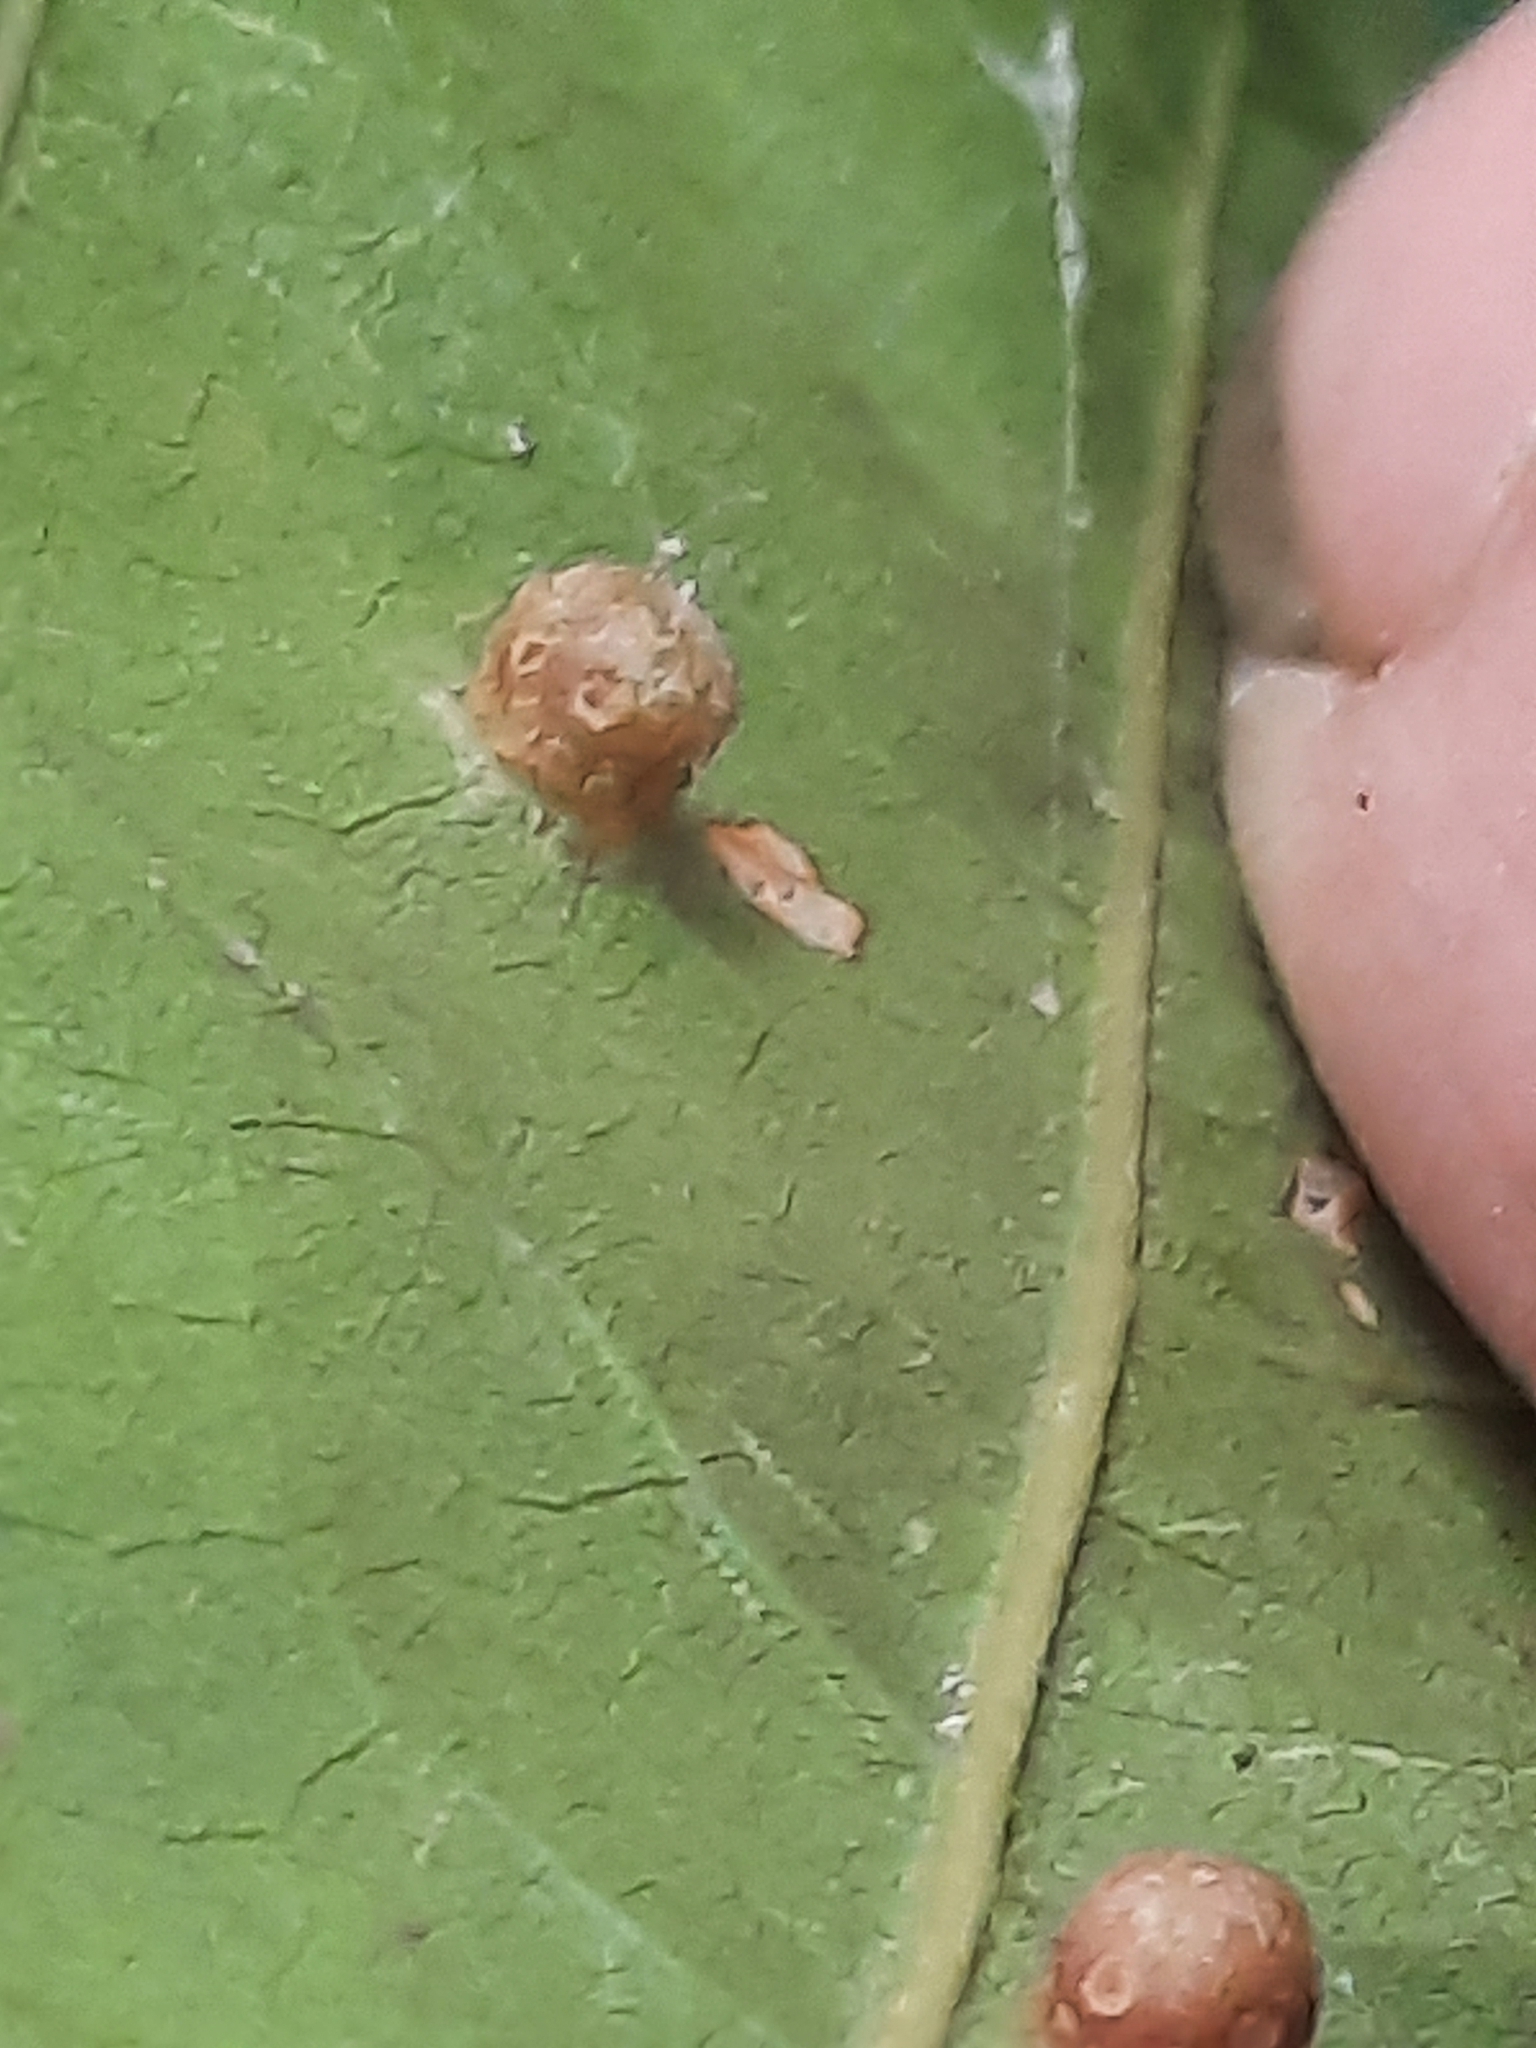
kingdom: Animalia
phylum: Arthropoda
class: Insecta
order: Diptera
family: Cecidomyiidae
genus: Polystepha
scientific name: Polystepha globosa
